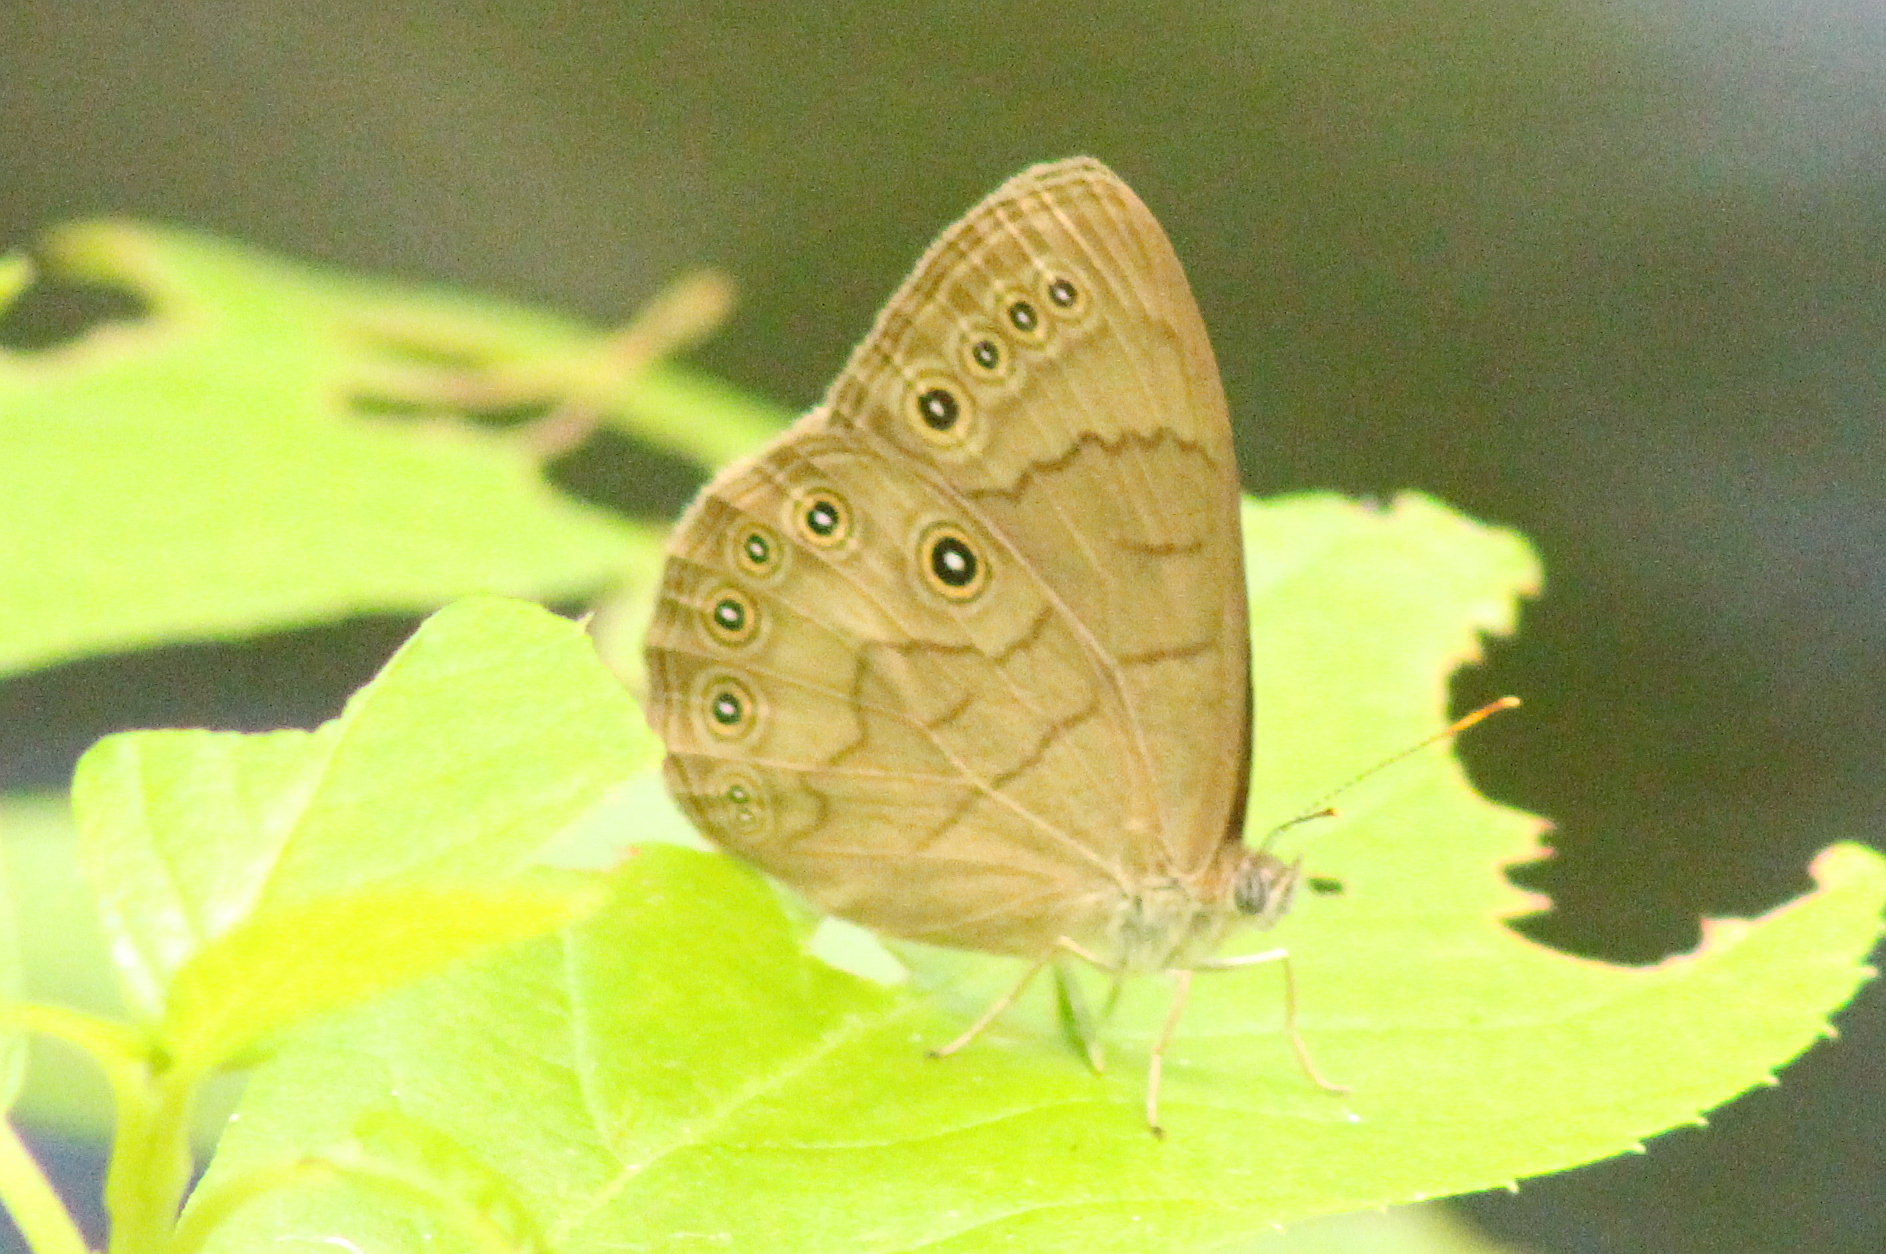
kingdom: Animalia
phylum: Arthropoda
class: Insecta
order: Lepidoptera
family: Nymphalidae
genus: Lethe
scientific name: Lethe eurydice
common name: Eyed brown
